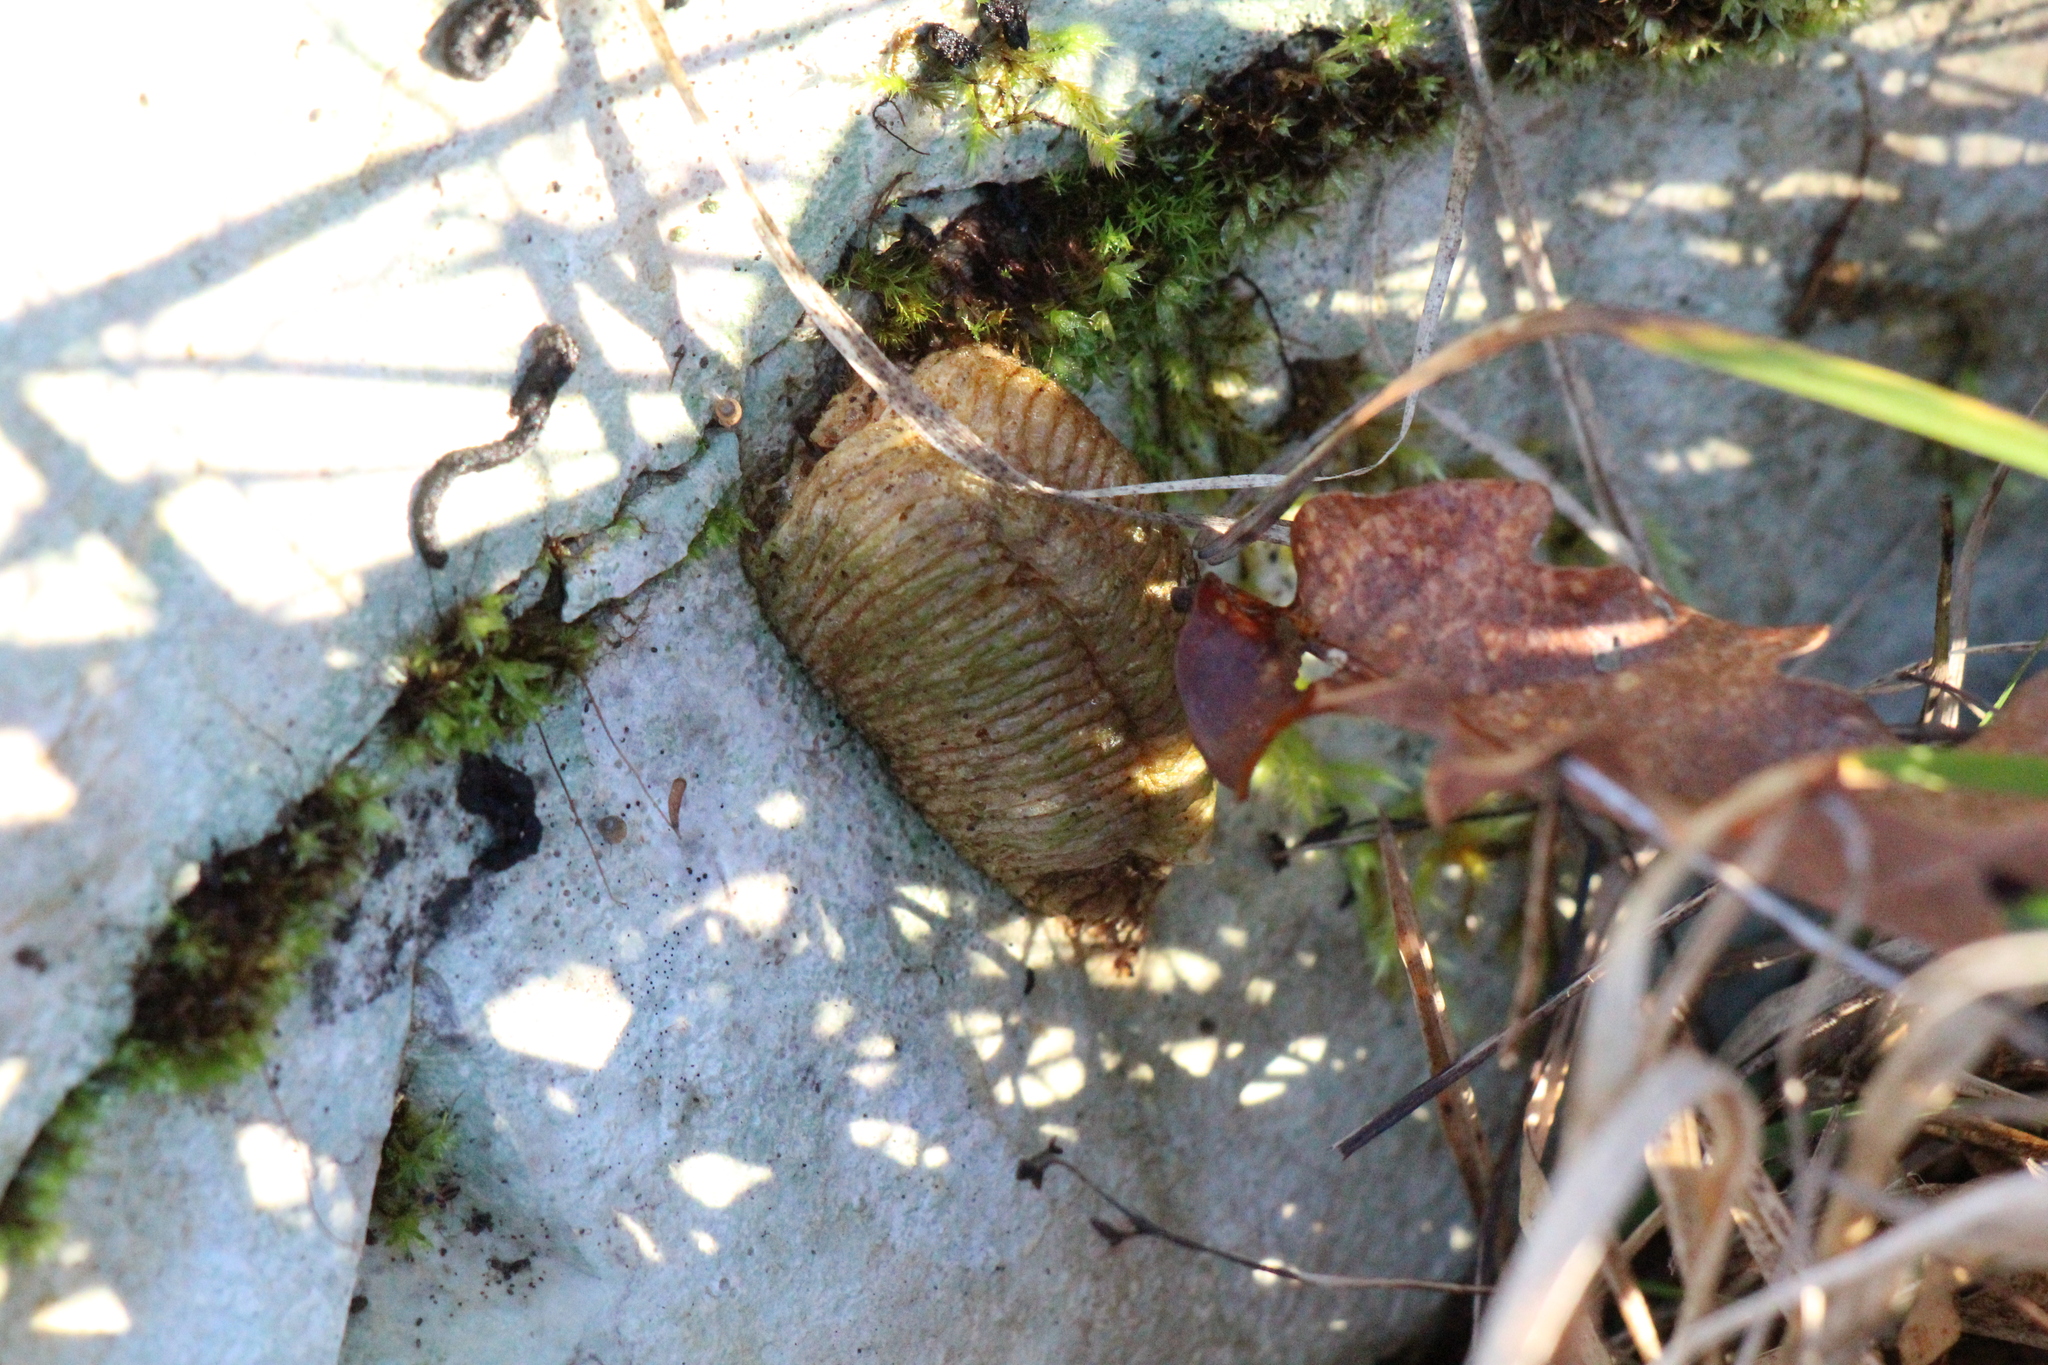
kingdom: Animalia
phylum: Arthropoda
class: Insecta
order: Mantodea
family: Mantidae
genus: Mantis
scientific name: Mantis religiosa
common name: Praying mantis
